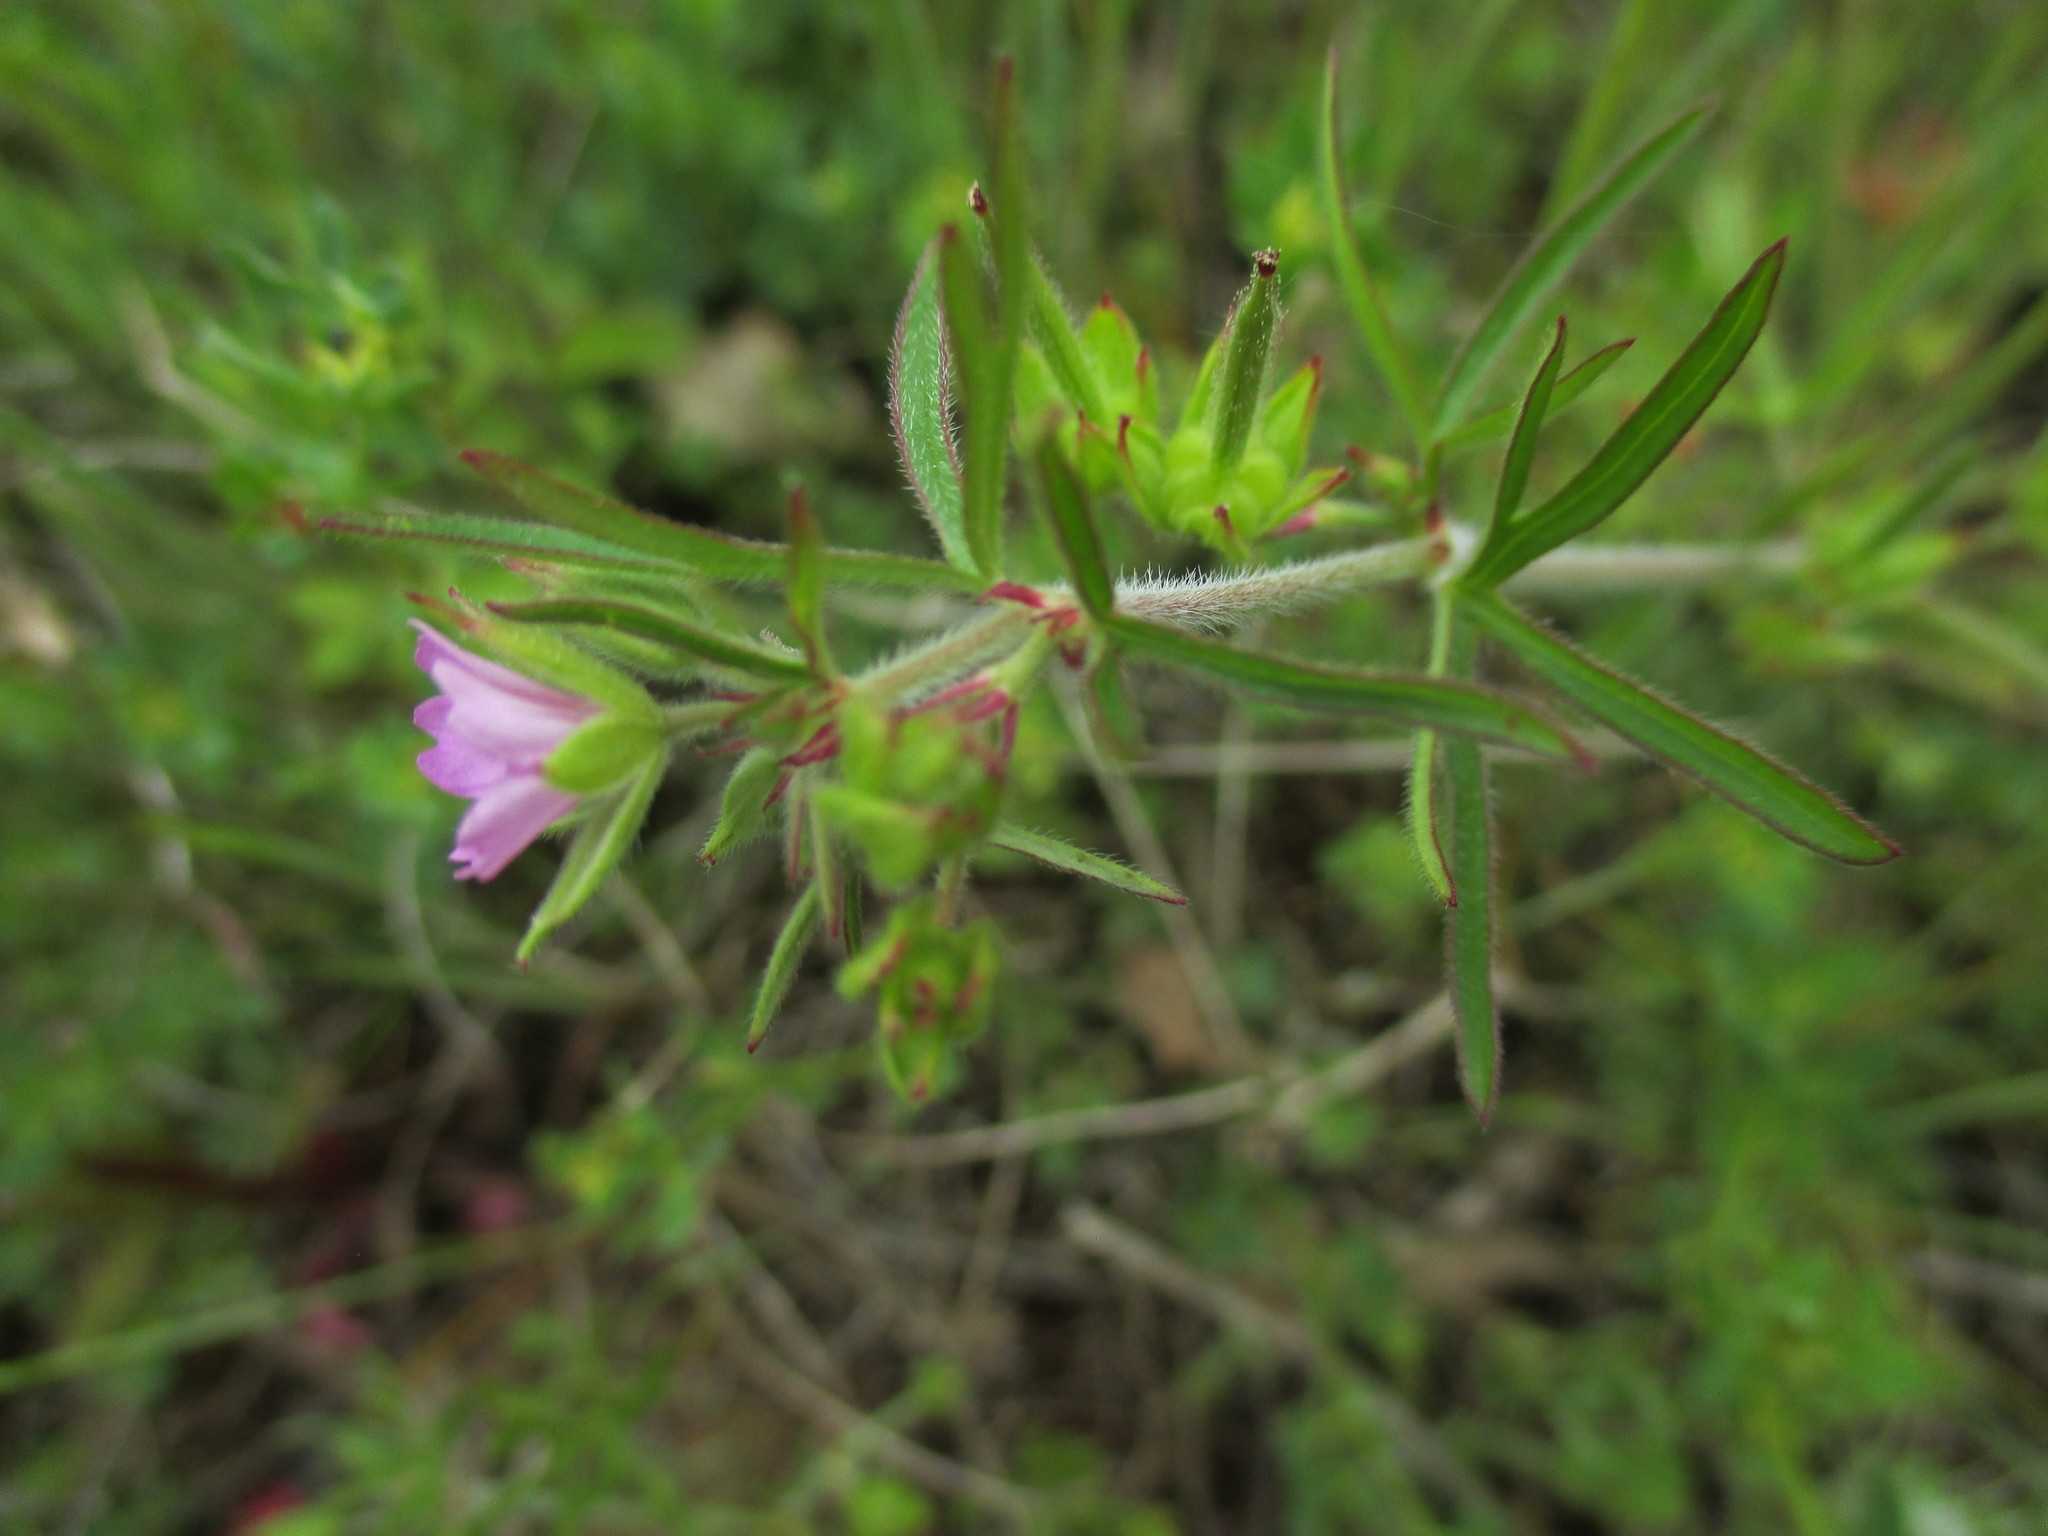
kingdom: Plantae
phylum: Tracheophyta
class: Magnoliopsida
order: Geraniales
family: Geraniaceae
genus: Geranium
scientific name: Geranium dissectum
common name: Cut-leaved crane's-bill
